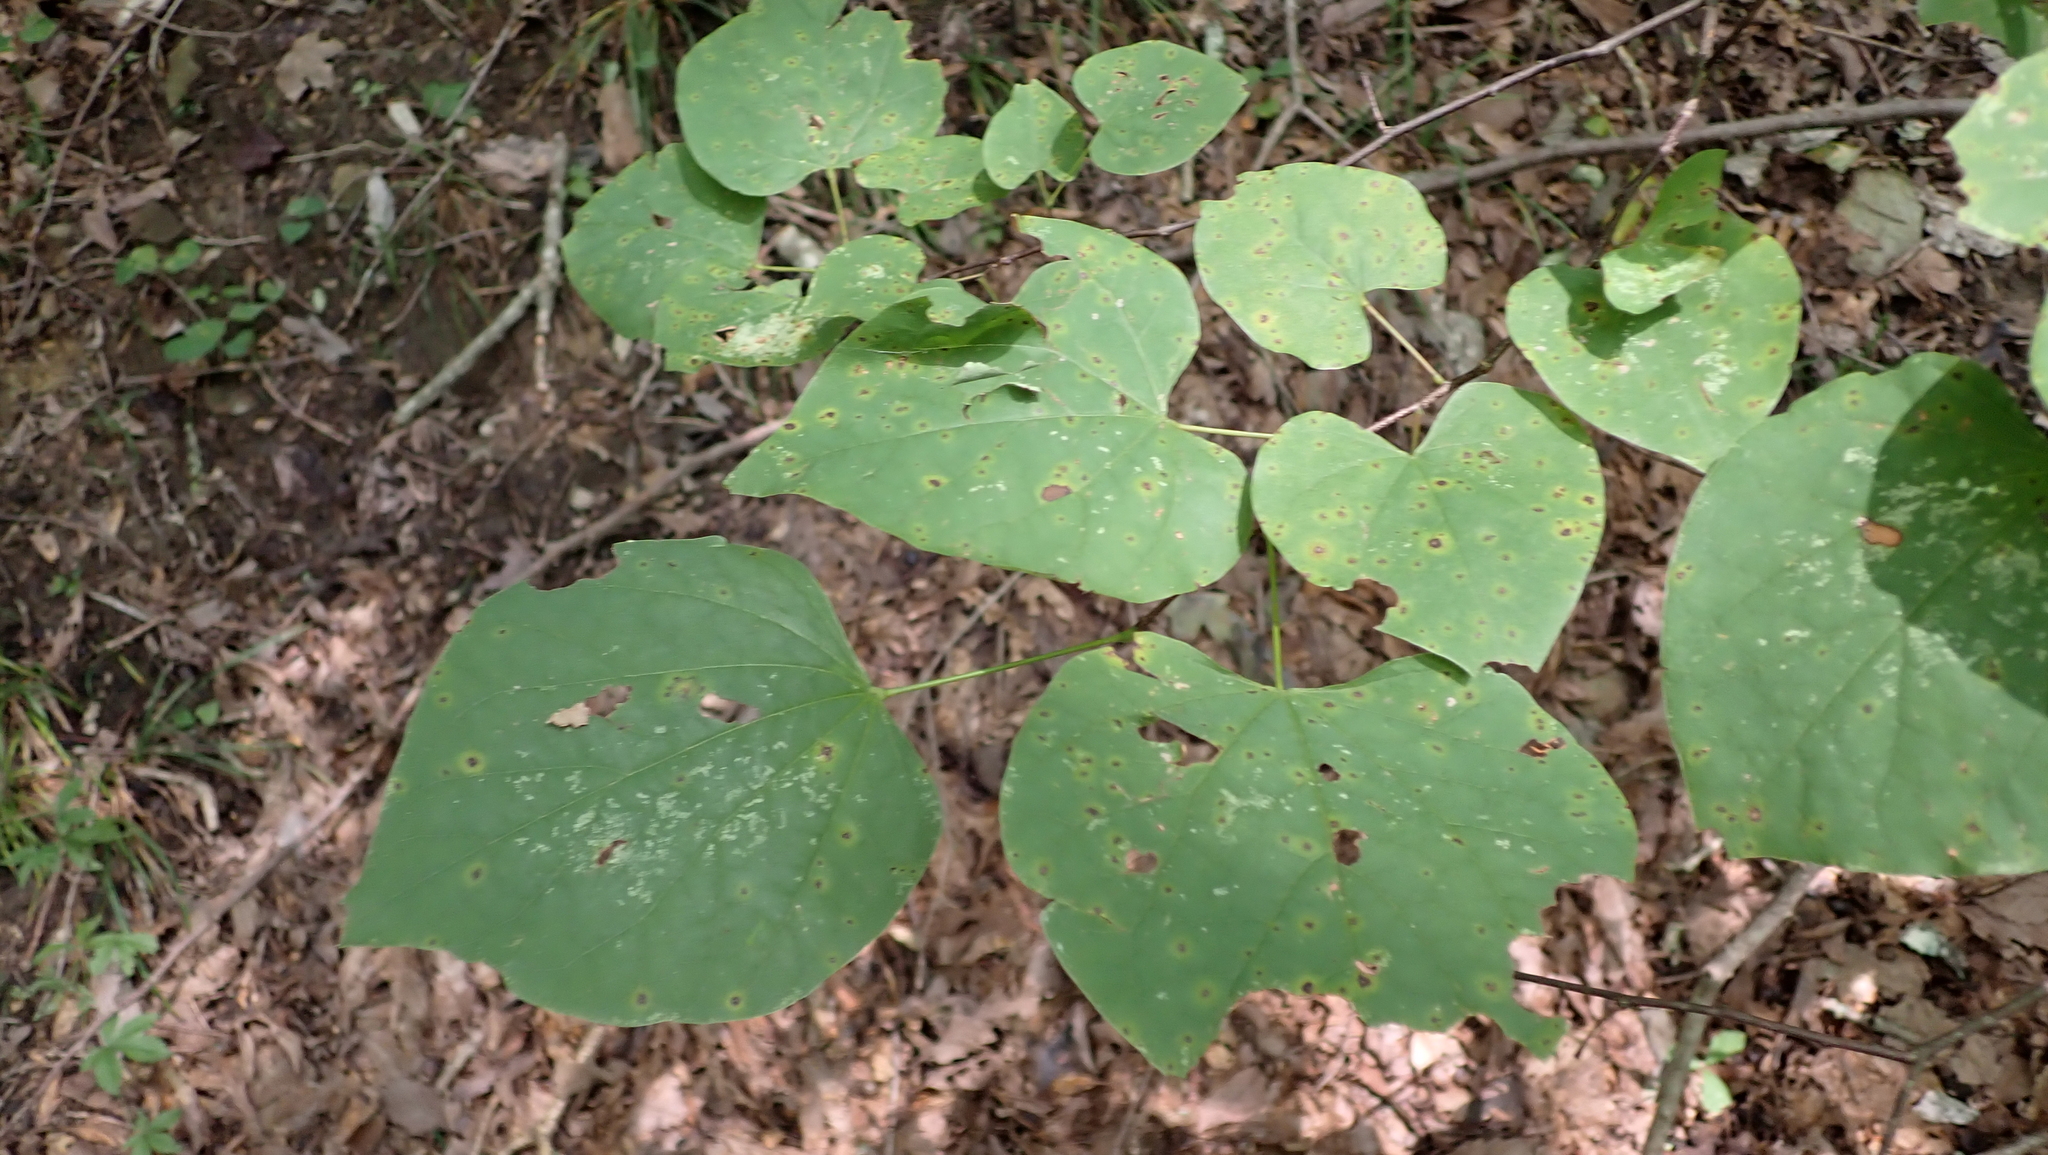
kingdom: Plantae
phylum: Tracheophyta
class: Magnoliopsida
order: Fabales
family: Fabaceae
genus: Cercis
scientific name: Cercis canadensis
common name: Eastern redbud
